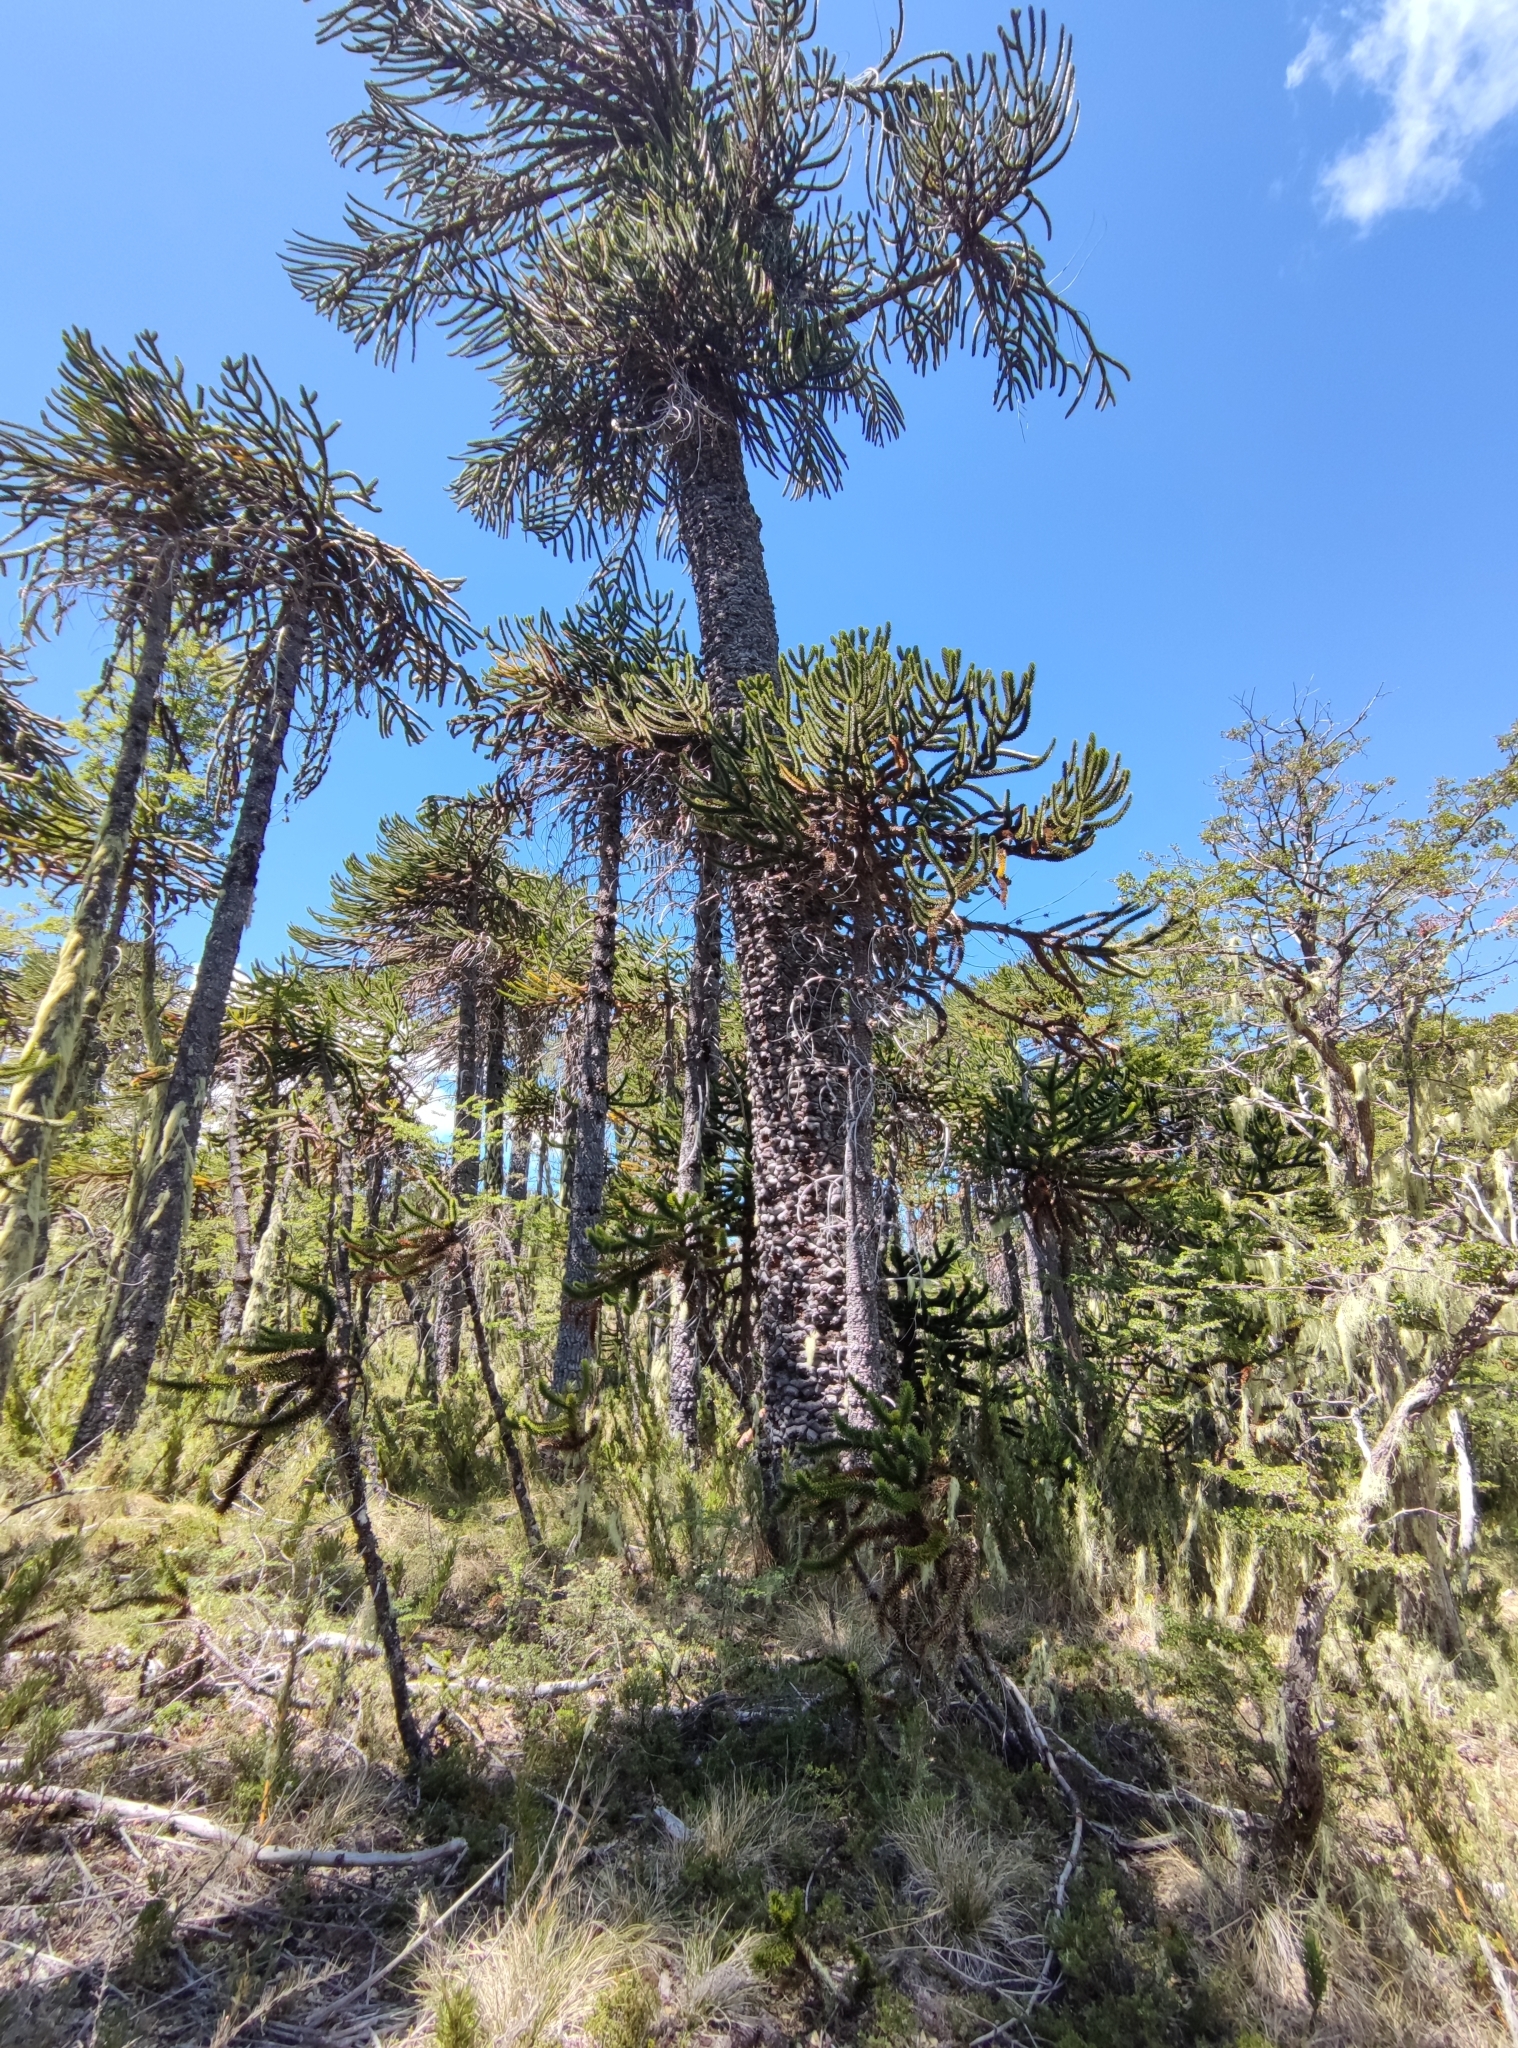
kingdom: Plantae
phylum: Tracheophyta
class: Pinopsida
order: Pinales
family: Araucariaceae
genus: Araucaria
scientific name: Araucaria araucana
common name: Monkey-puzzle
